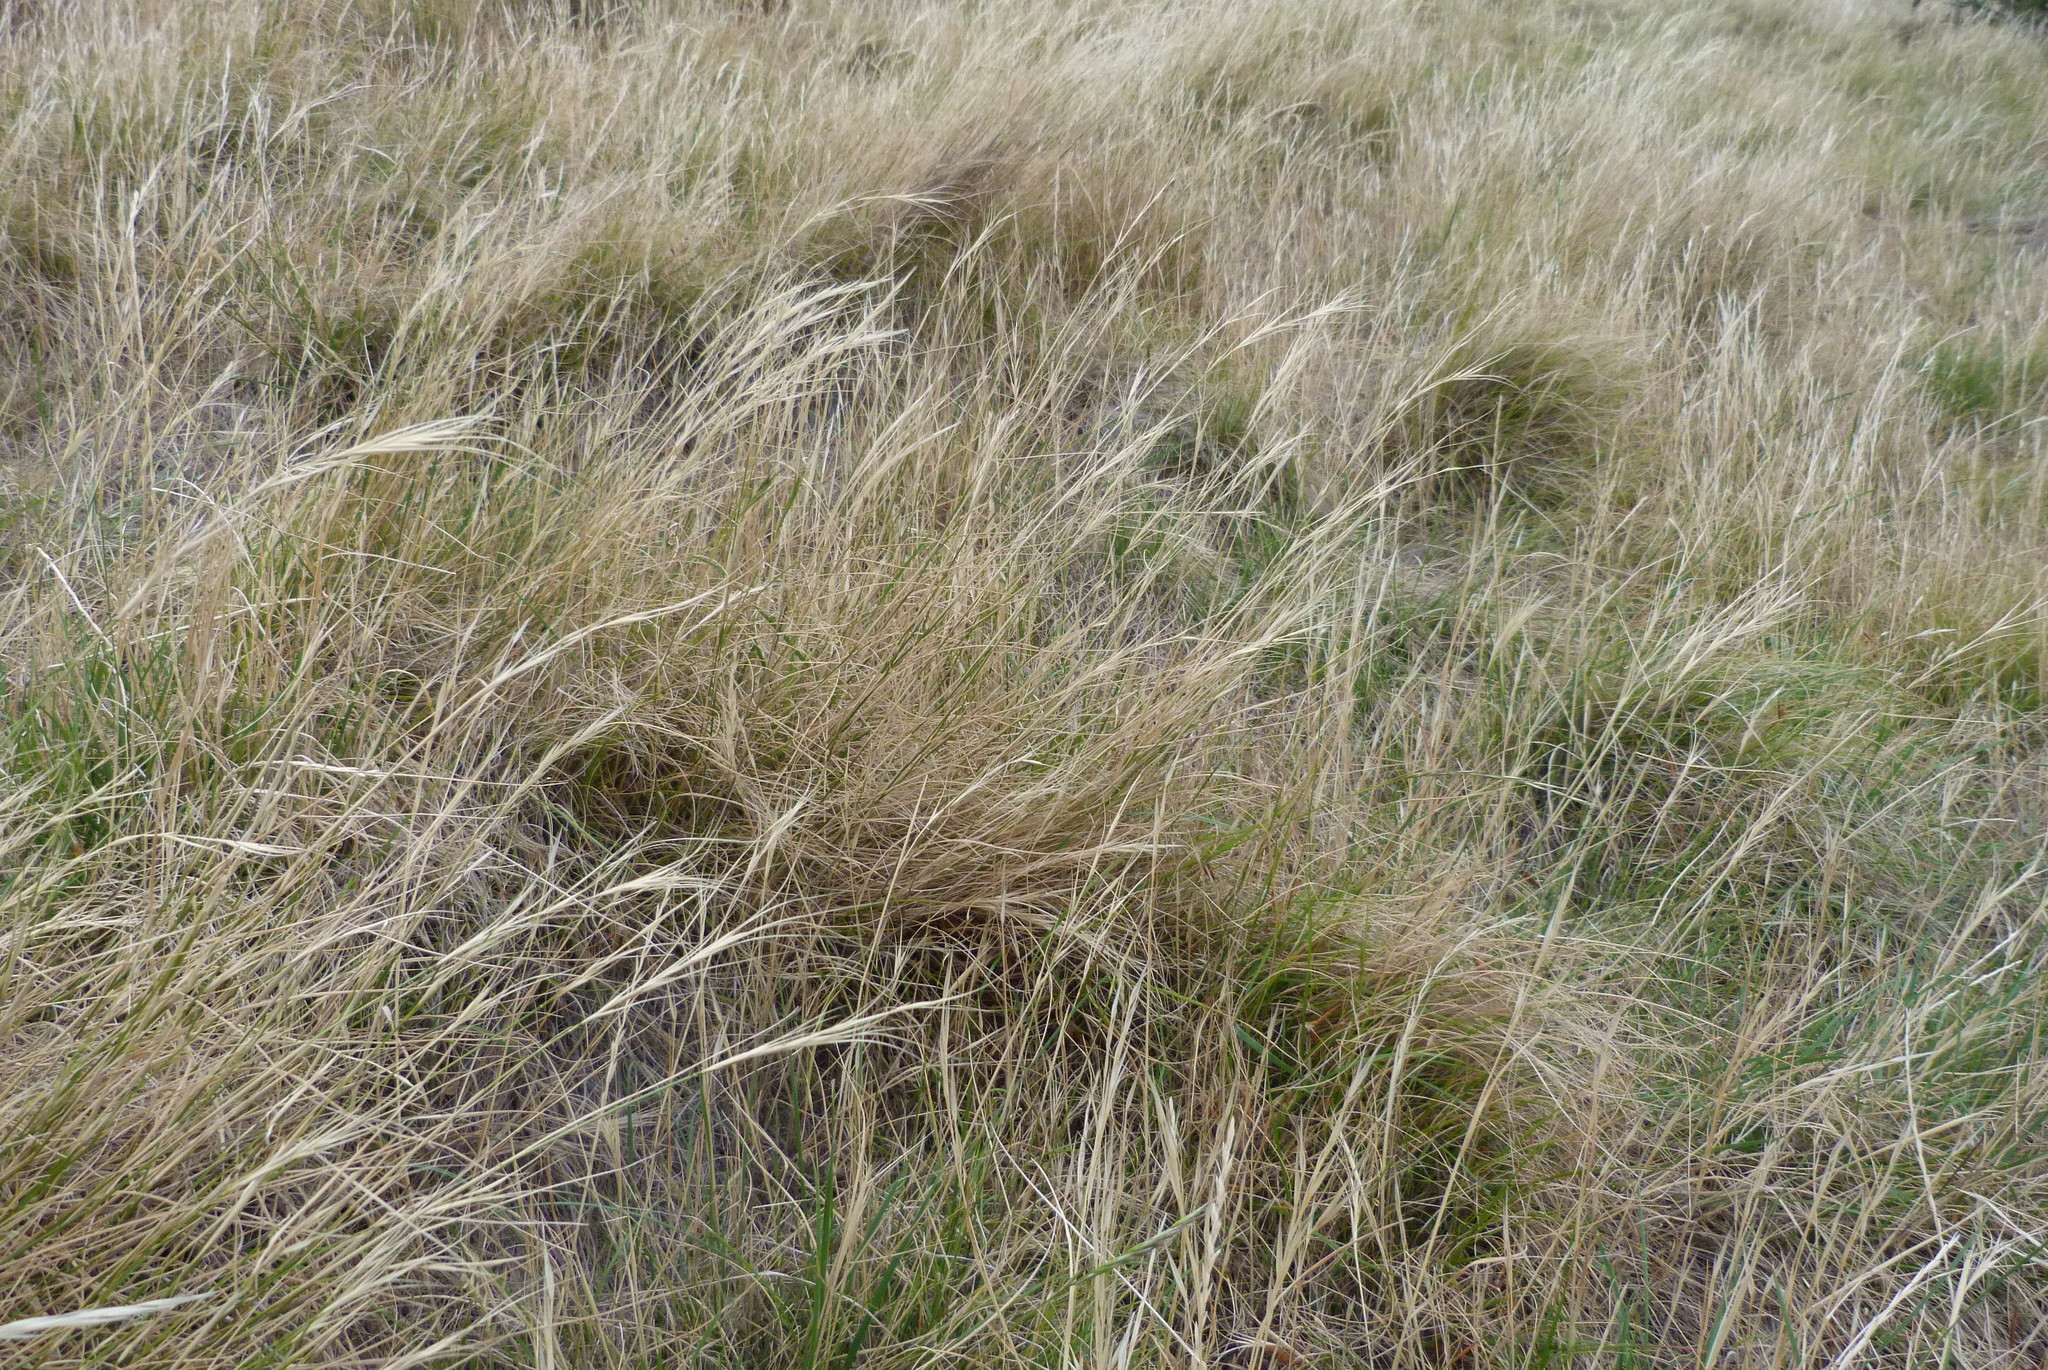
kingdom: Plantae
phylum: Tracheophyta
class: Liliopsida
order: Poales
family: Poaceae
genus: Anthosachne
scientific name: Anthosachne scabra
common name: Common wheatgrass
